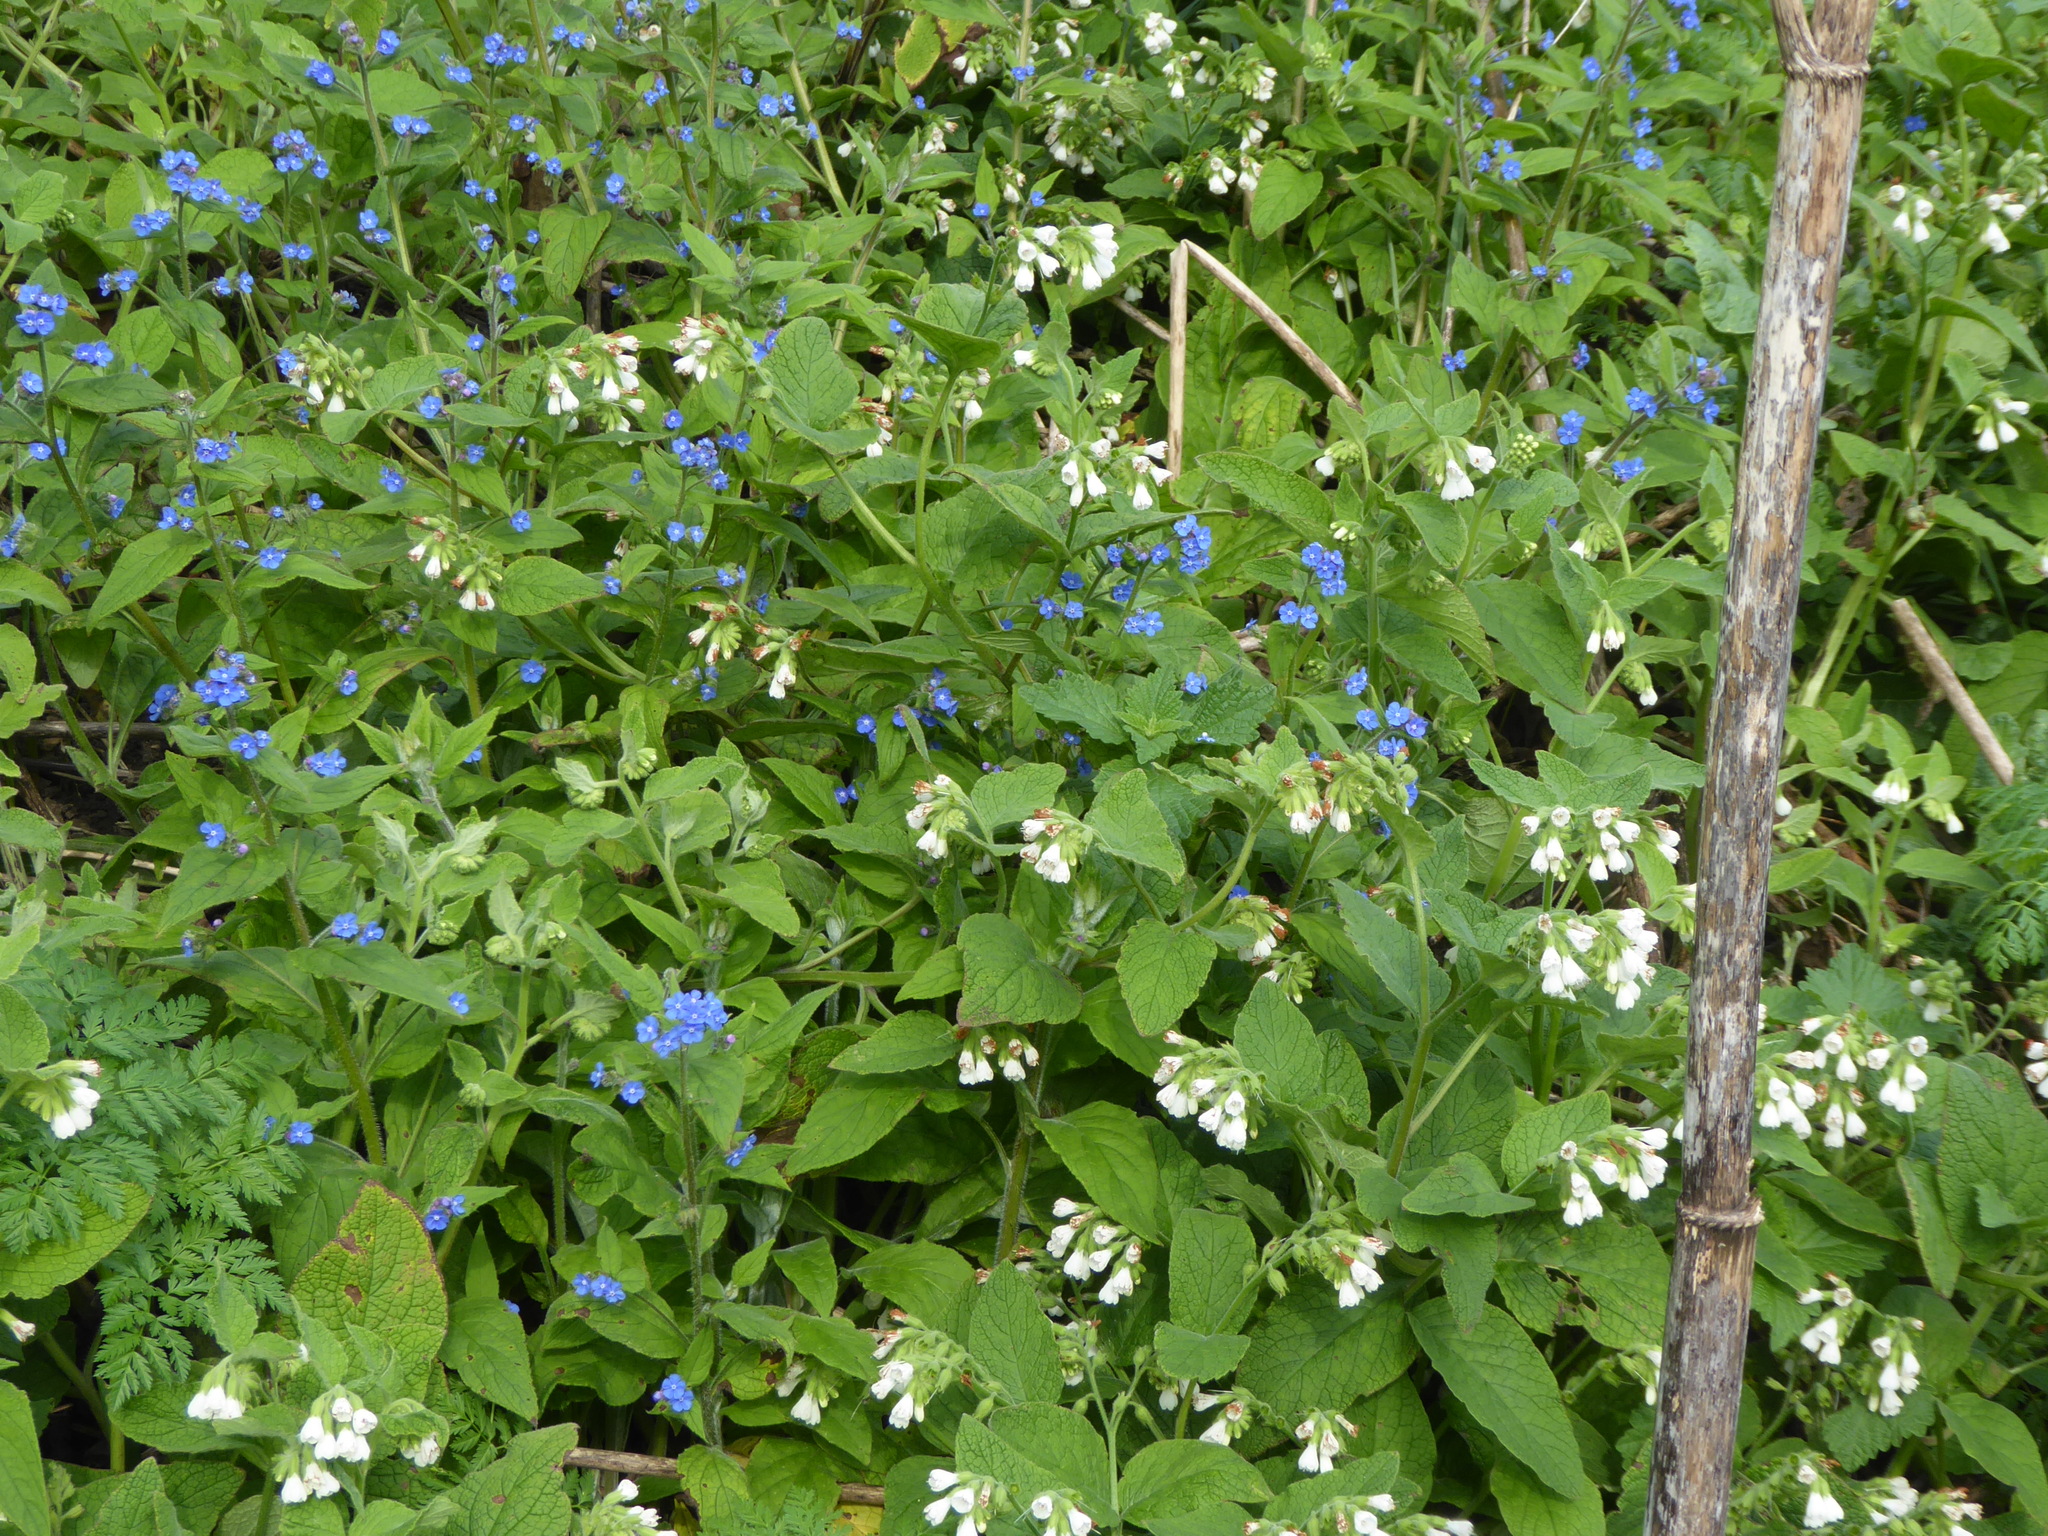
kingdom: Plantae
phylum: Tracheophyta
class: Magnoliopsida
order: Boraginales
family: Boraginaceae
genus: Symphytum
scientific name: Symphytum orientale
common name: White comfrey
